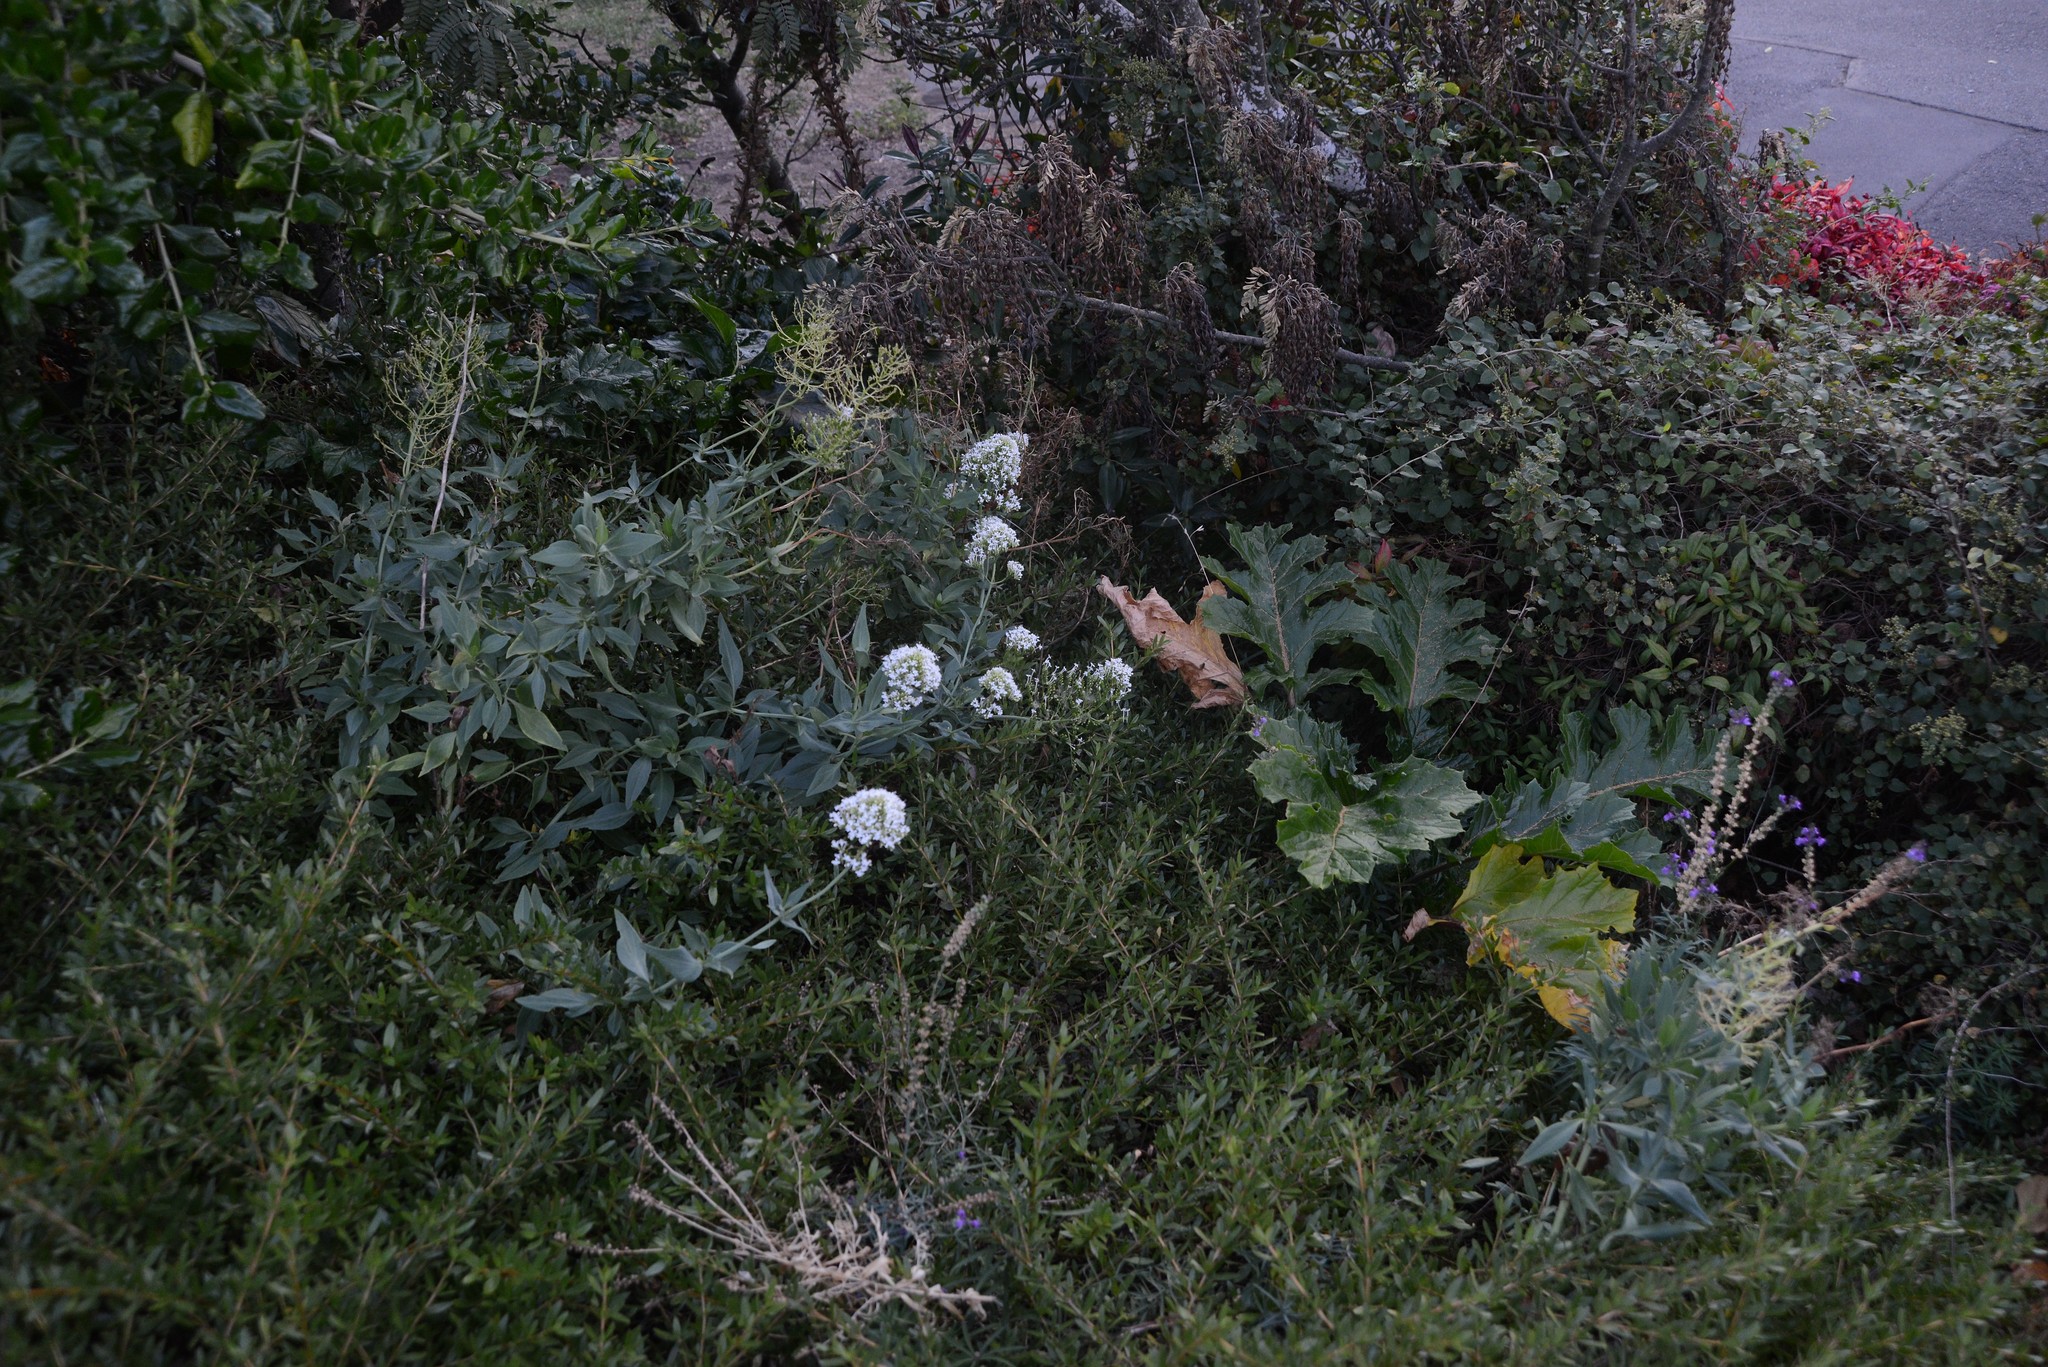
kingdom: Plantae
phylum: Tracheophyta
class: Magnoliopsida
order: Dipsacales
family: Caprifoliaceae
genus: Centranthus
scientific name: Centranthus ruber
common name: Red valerian
